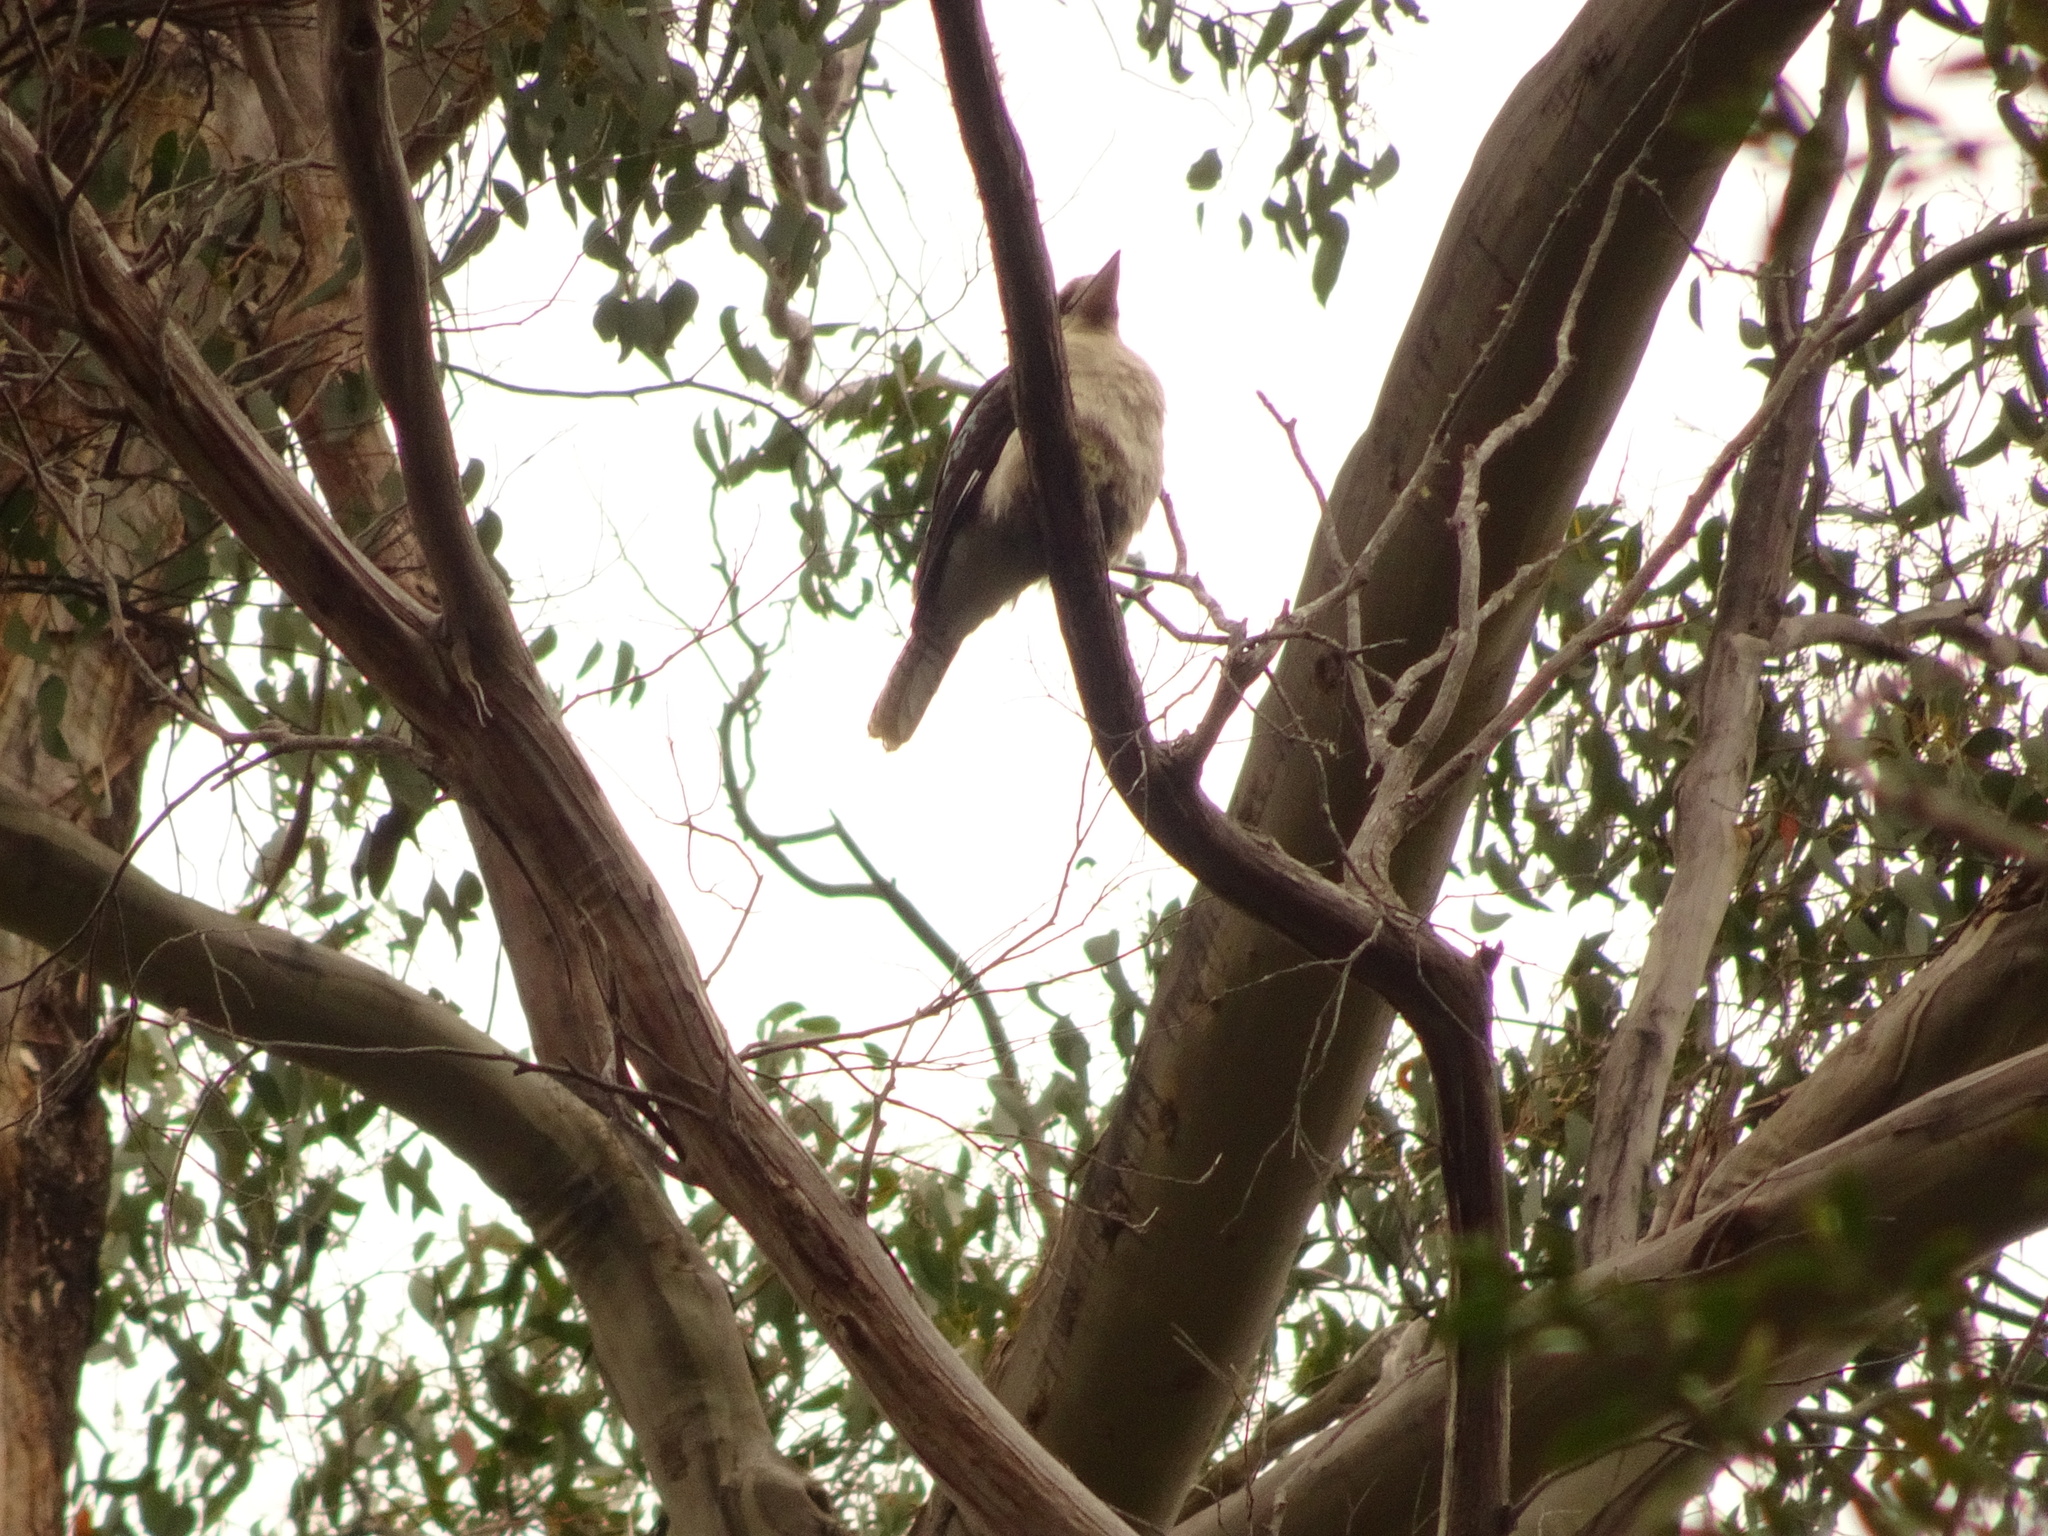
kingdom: Animalia
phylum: Chordata
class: Aves
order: Coraciiformes
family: Alcedinidae
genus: Dacelo
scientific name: Dacelo novaeguineae
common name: Laughing kookaburra
